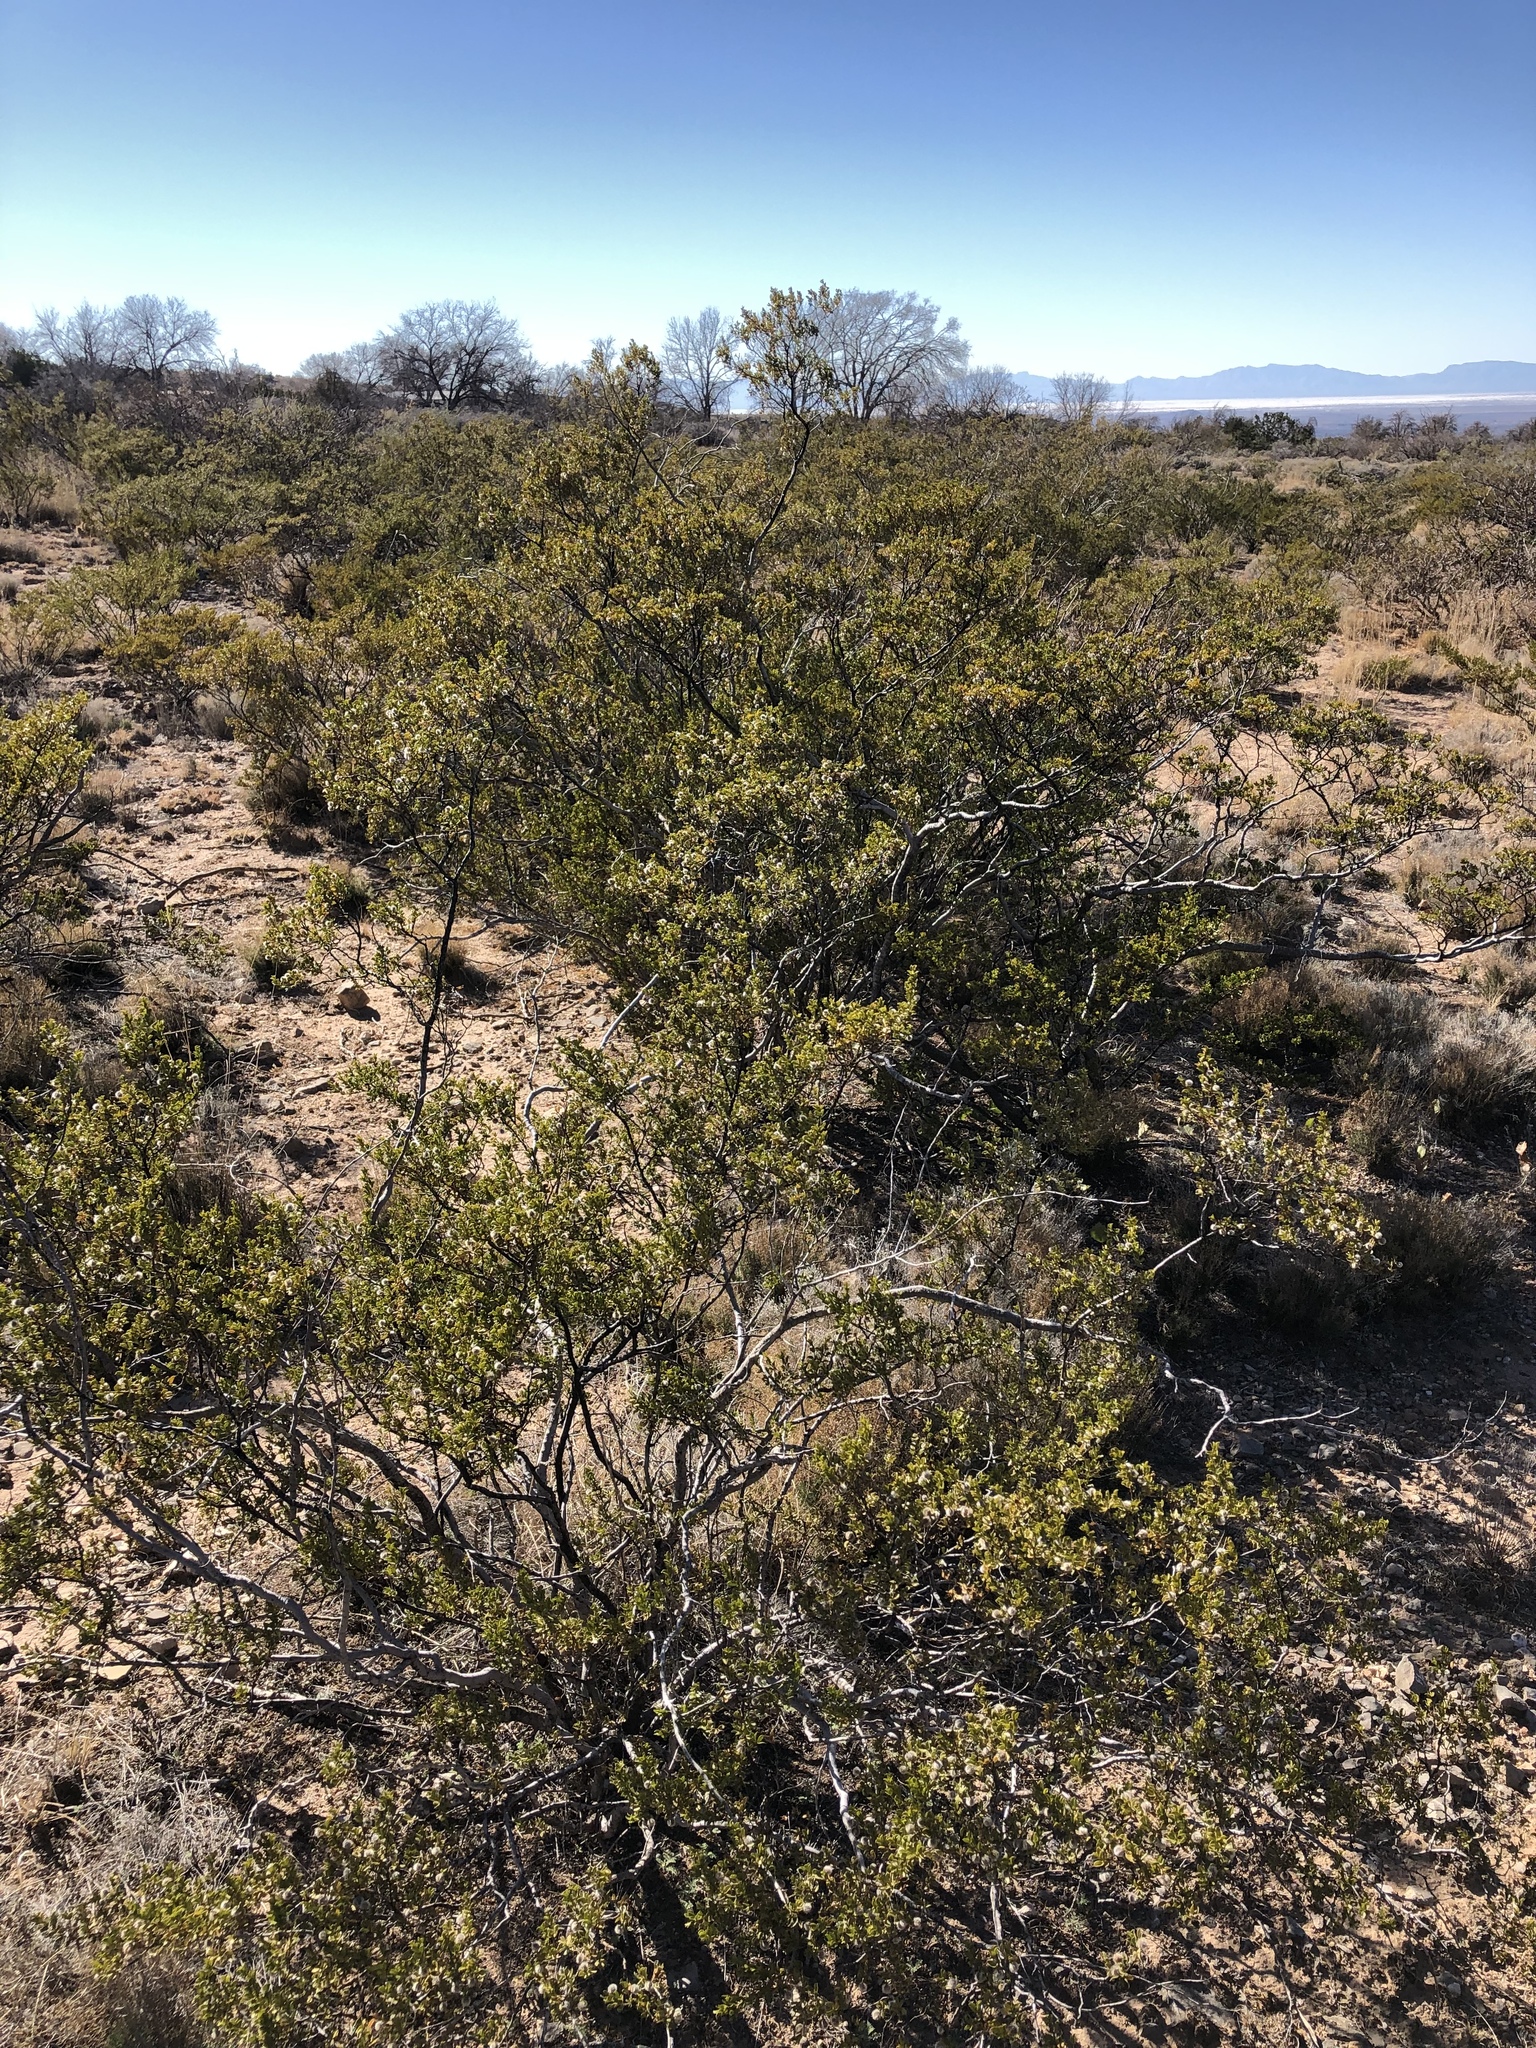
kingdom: Plantae
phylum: Tracheophyta
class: Magnoliopsida
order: Zygophyllales
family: Zygophyllaceae
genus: Larrea
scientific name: Larrea tridentata
